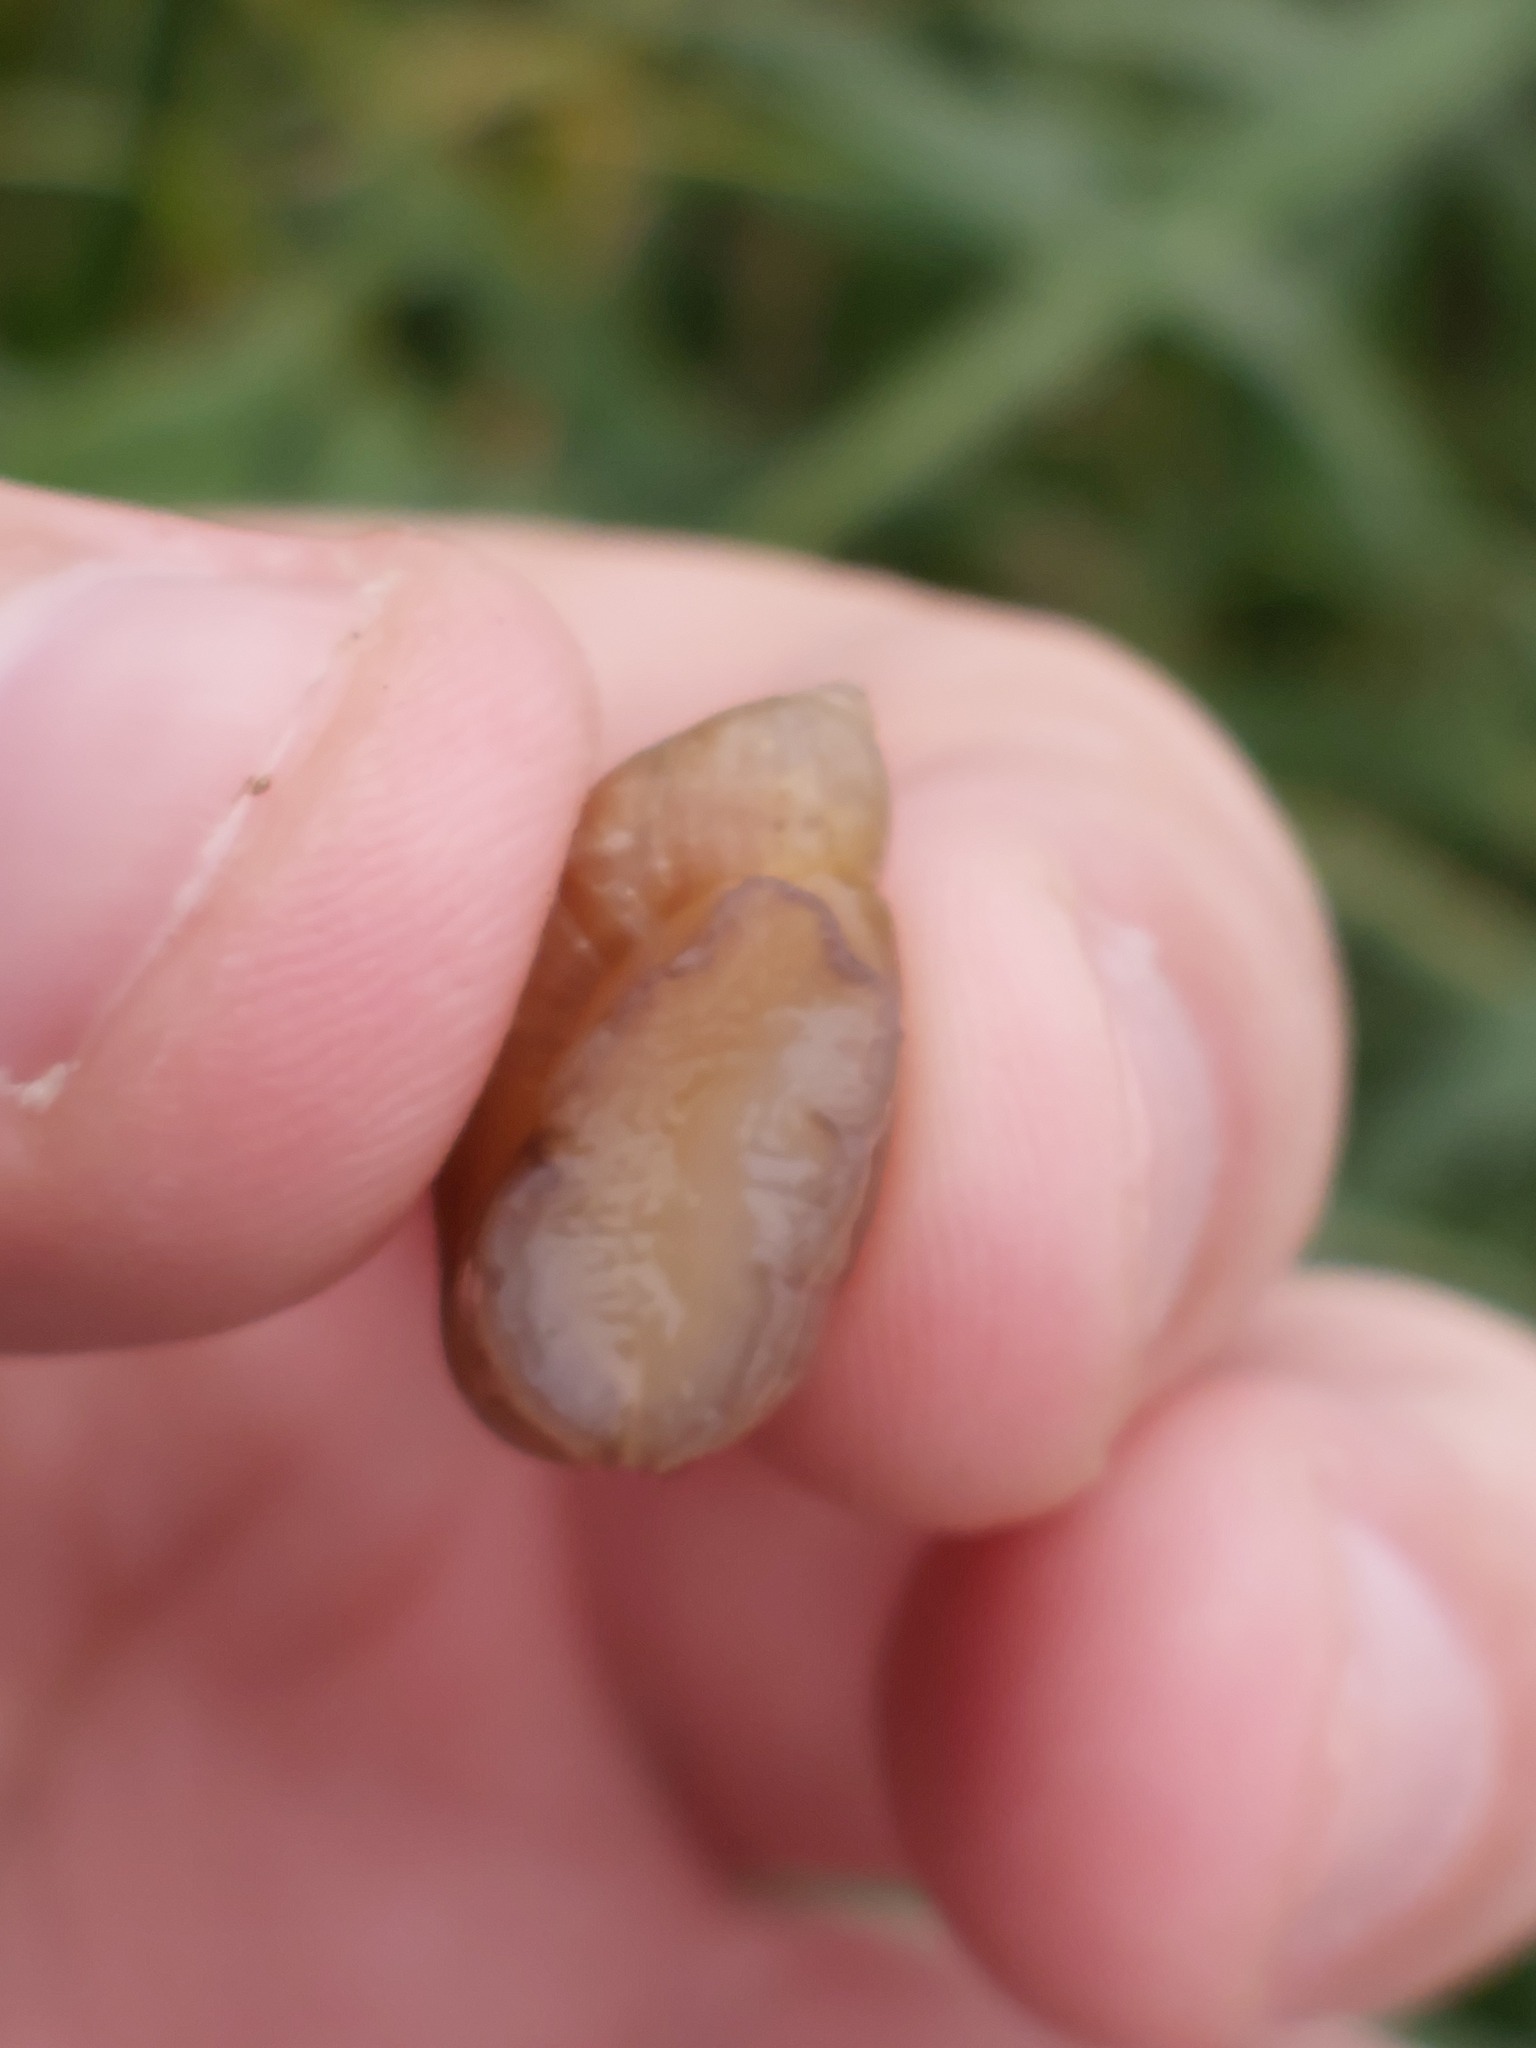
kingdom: Animalia
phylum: Mollusca
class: Gastropoda
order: Stylommatophora
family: Succineidae
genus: Succinea
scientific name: Succinea putris
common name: European ambersnail
